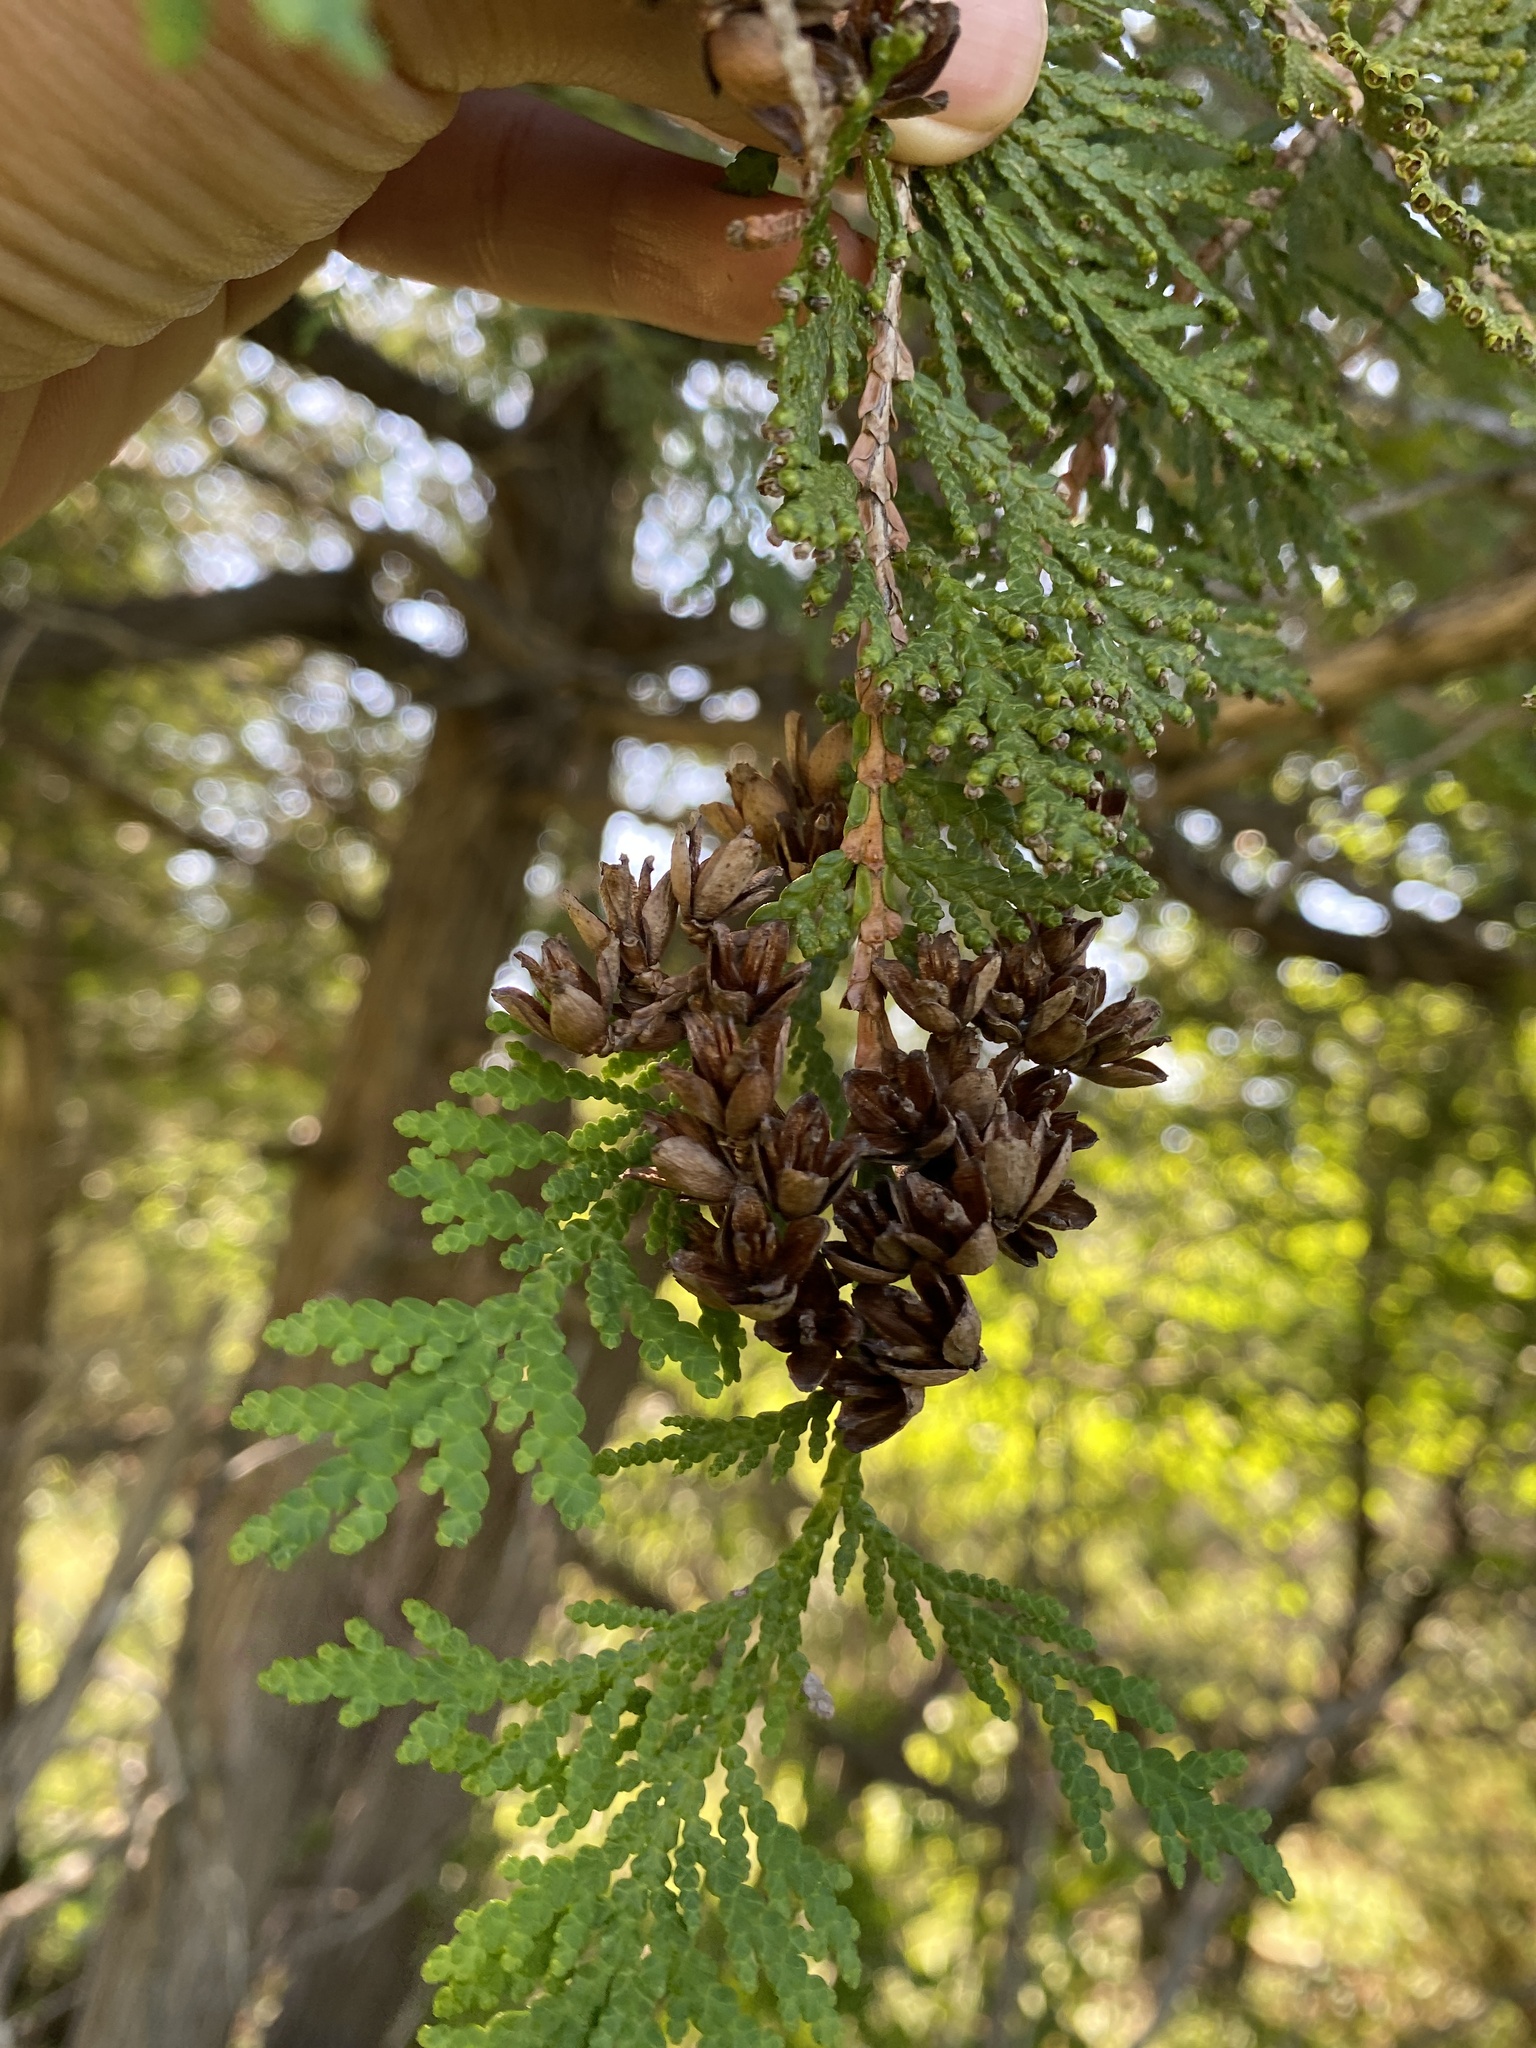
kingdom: Plantae
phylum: Tracheophyta
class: Pinopsida
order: Pinales
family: Cupressaceae
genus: Thuja
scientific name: Thuja occidentalis
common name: Northern white-cedar
